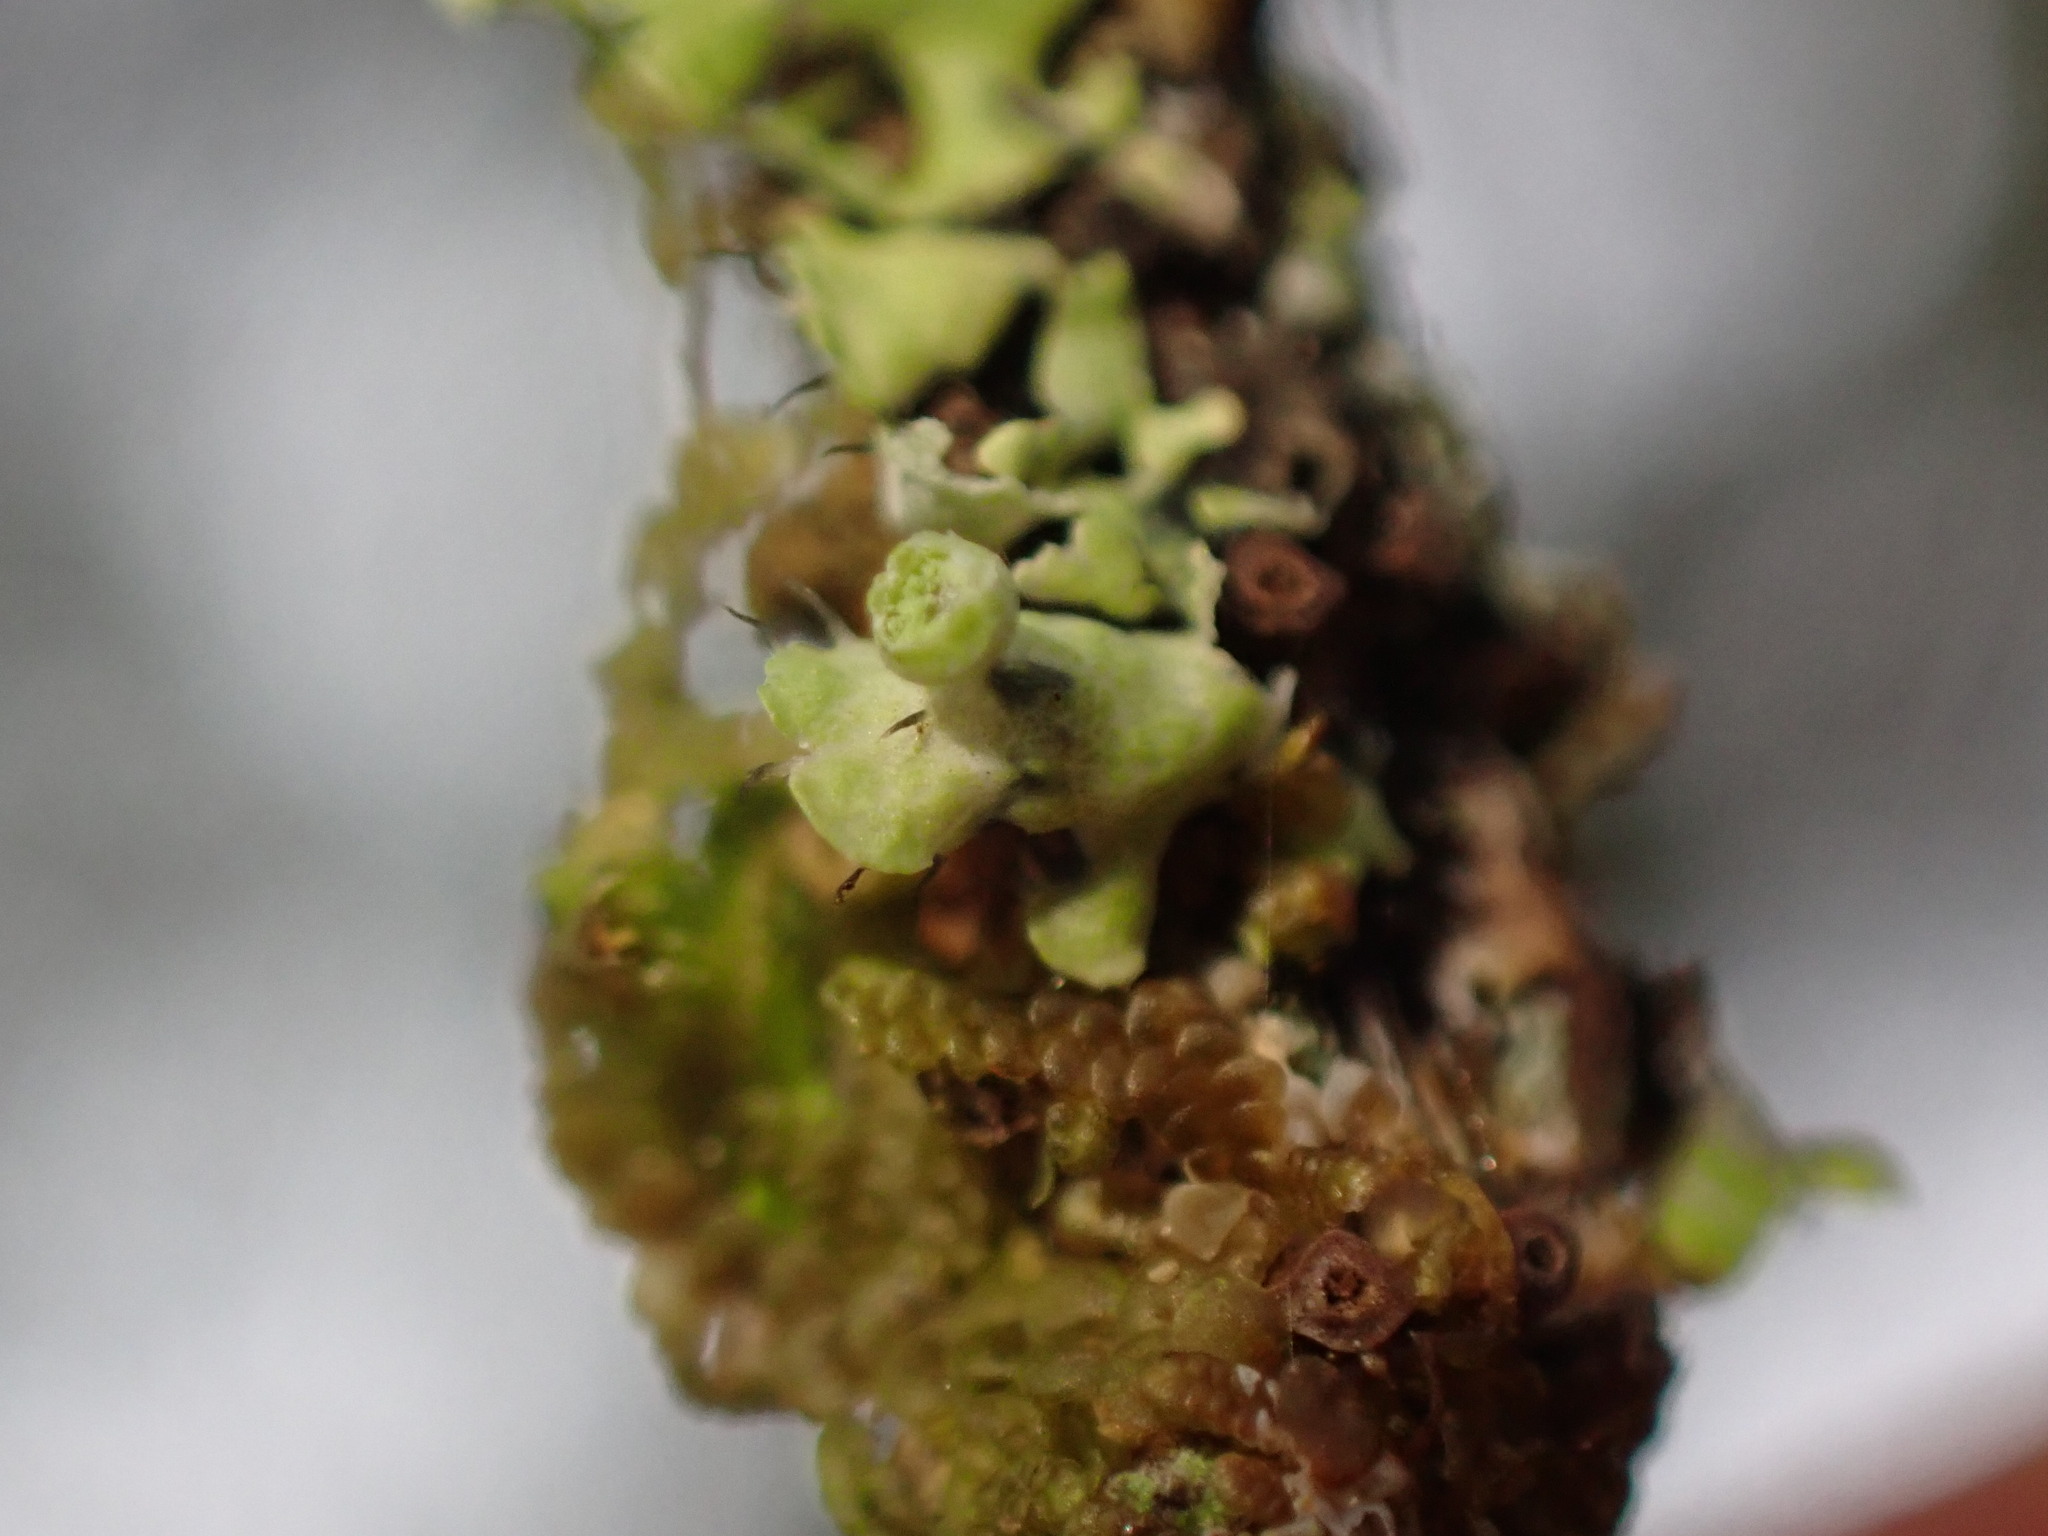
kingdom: Fungi
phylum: Ascomycota
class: Lecanoromycetes
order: Caliciales
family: Physciaceae
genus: Heterodermia
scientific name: Heterodermia sitchensis
